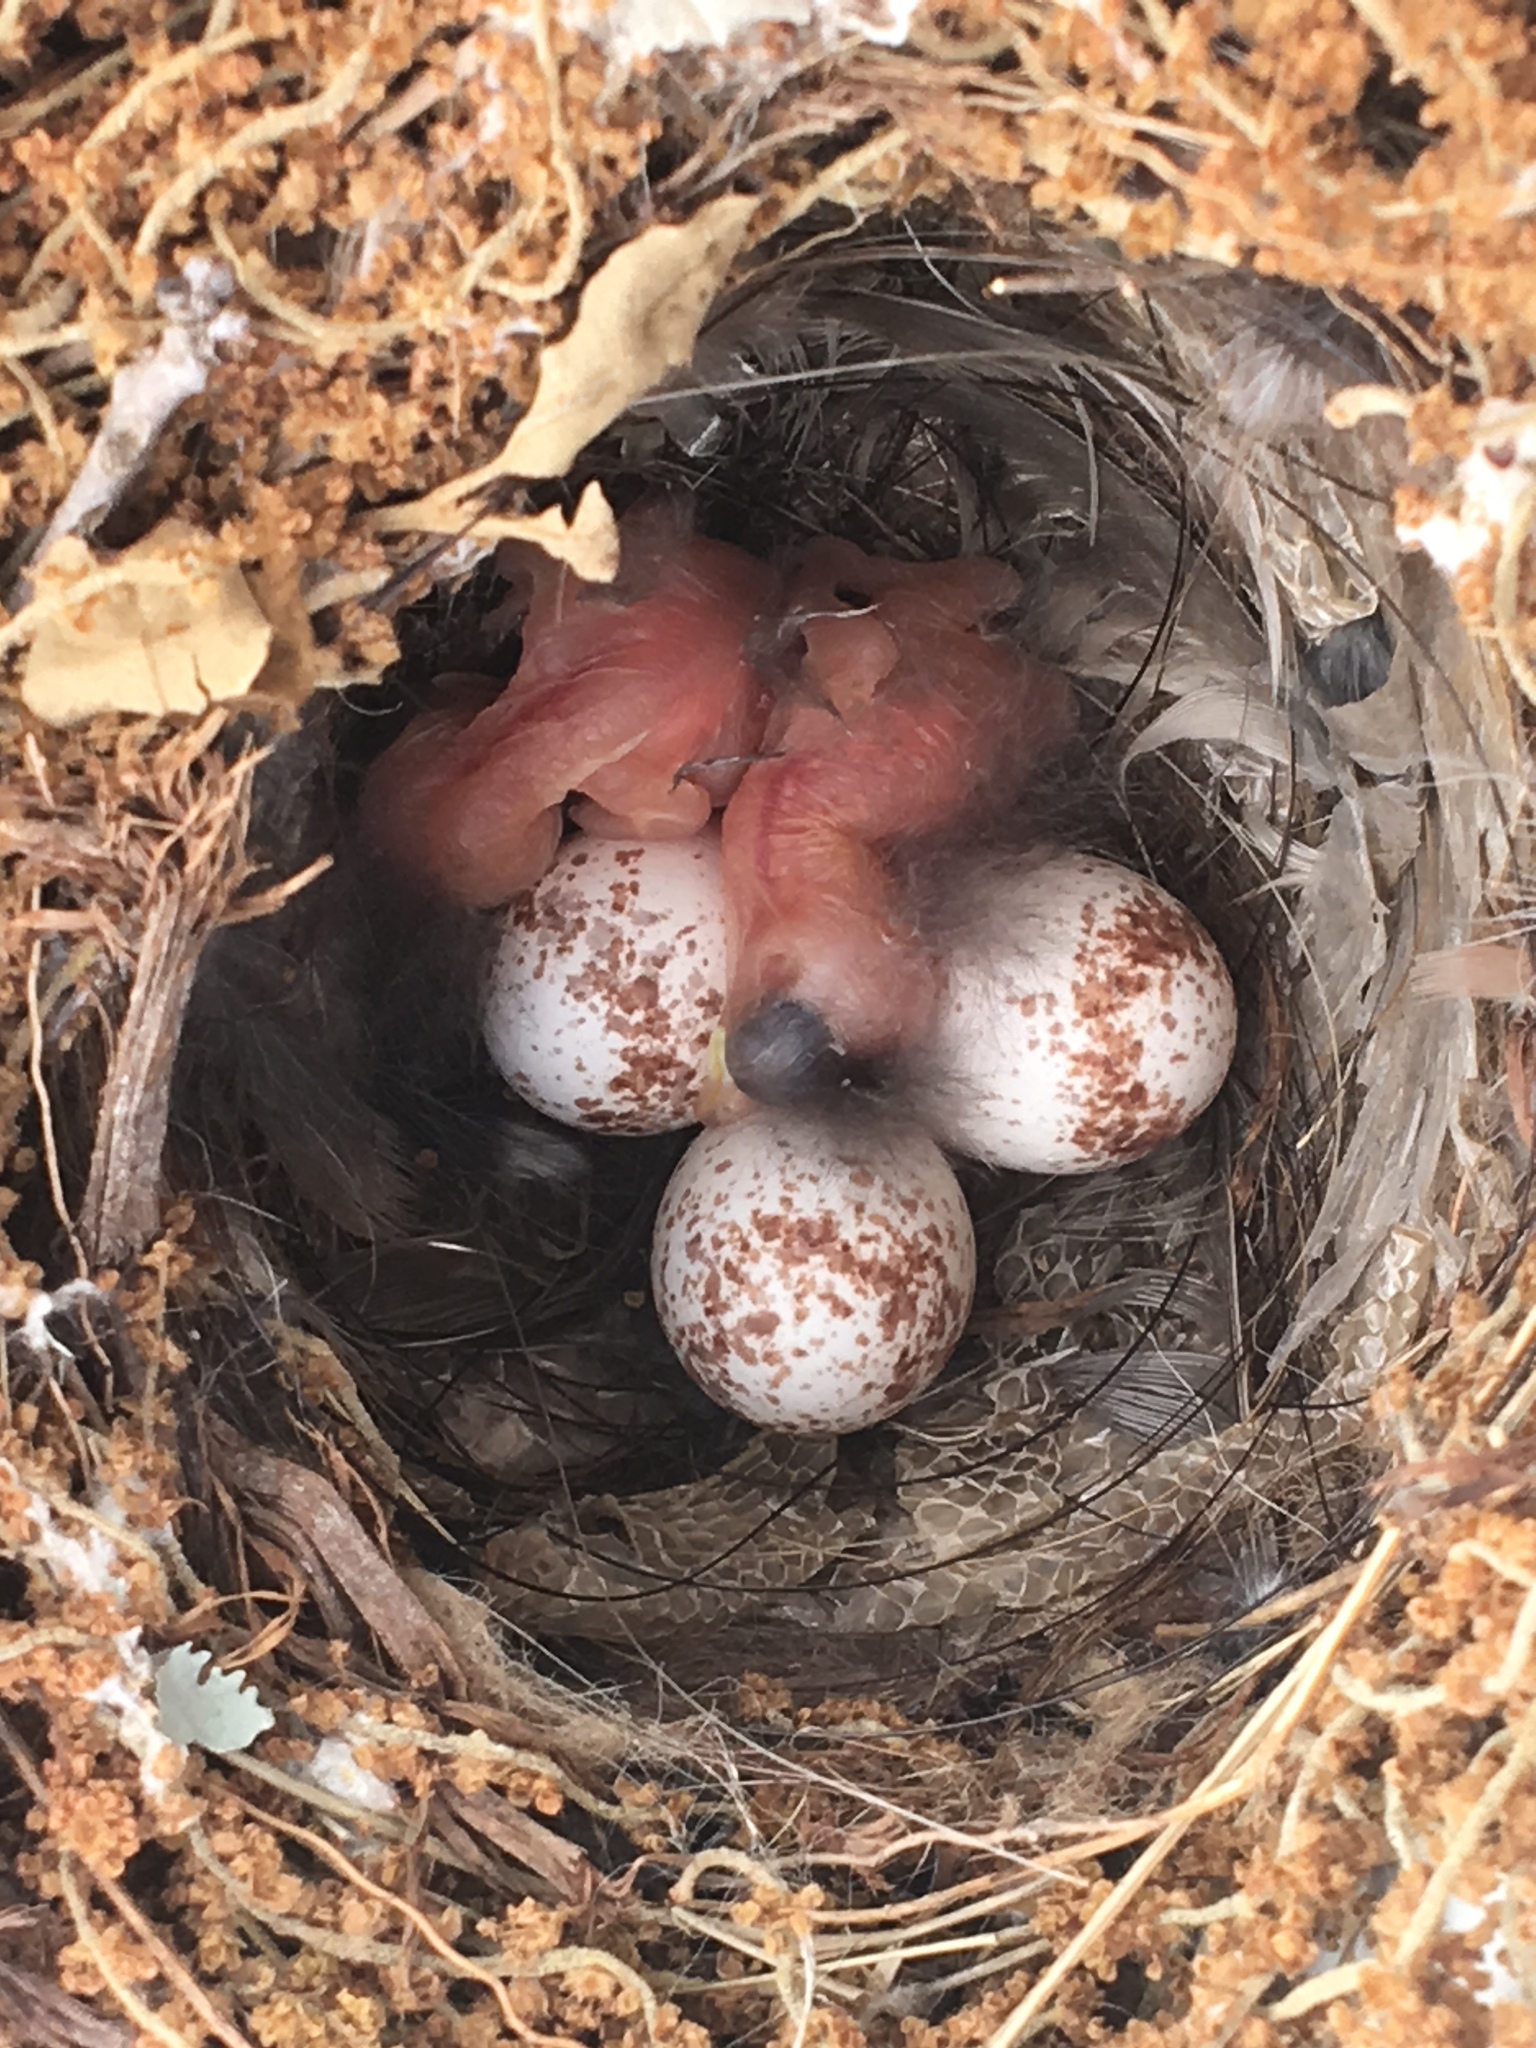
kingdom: Animalia
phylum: Chordata
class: Aves
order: Passeriformes
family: Troglodytidae
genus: Thryothorus
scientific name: Thryothorus ludovicianus
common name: Carolina wren
